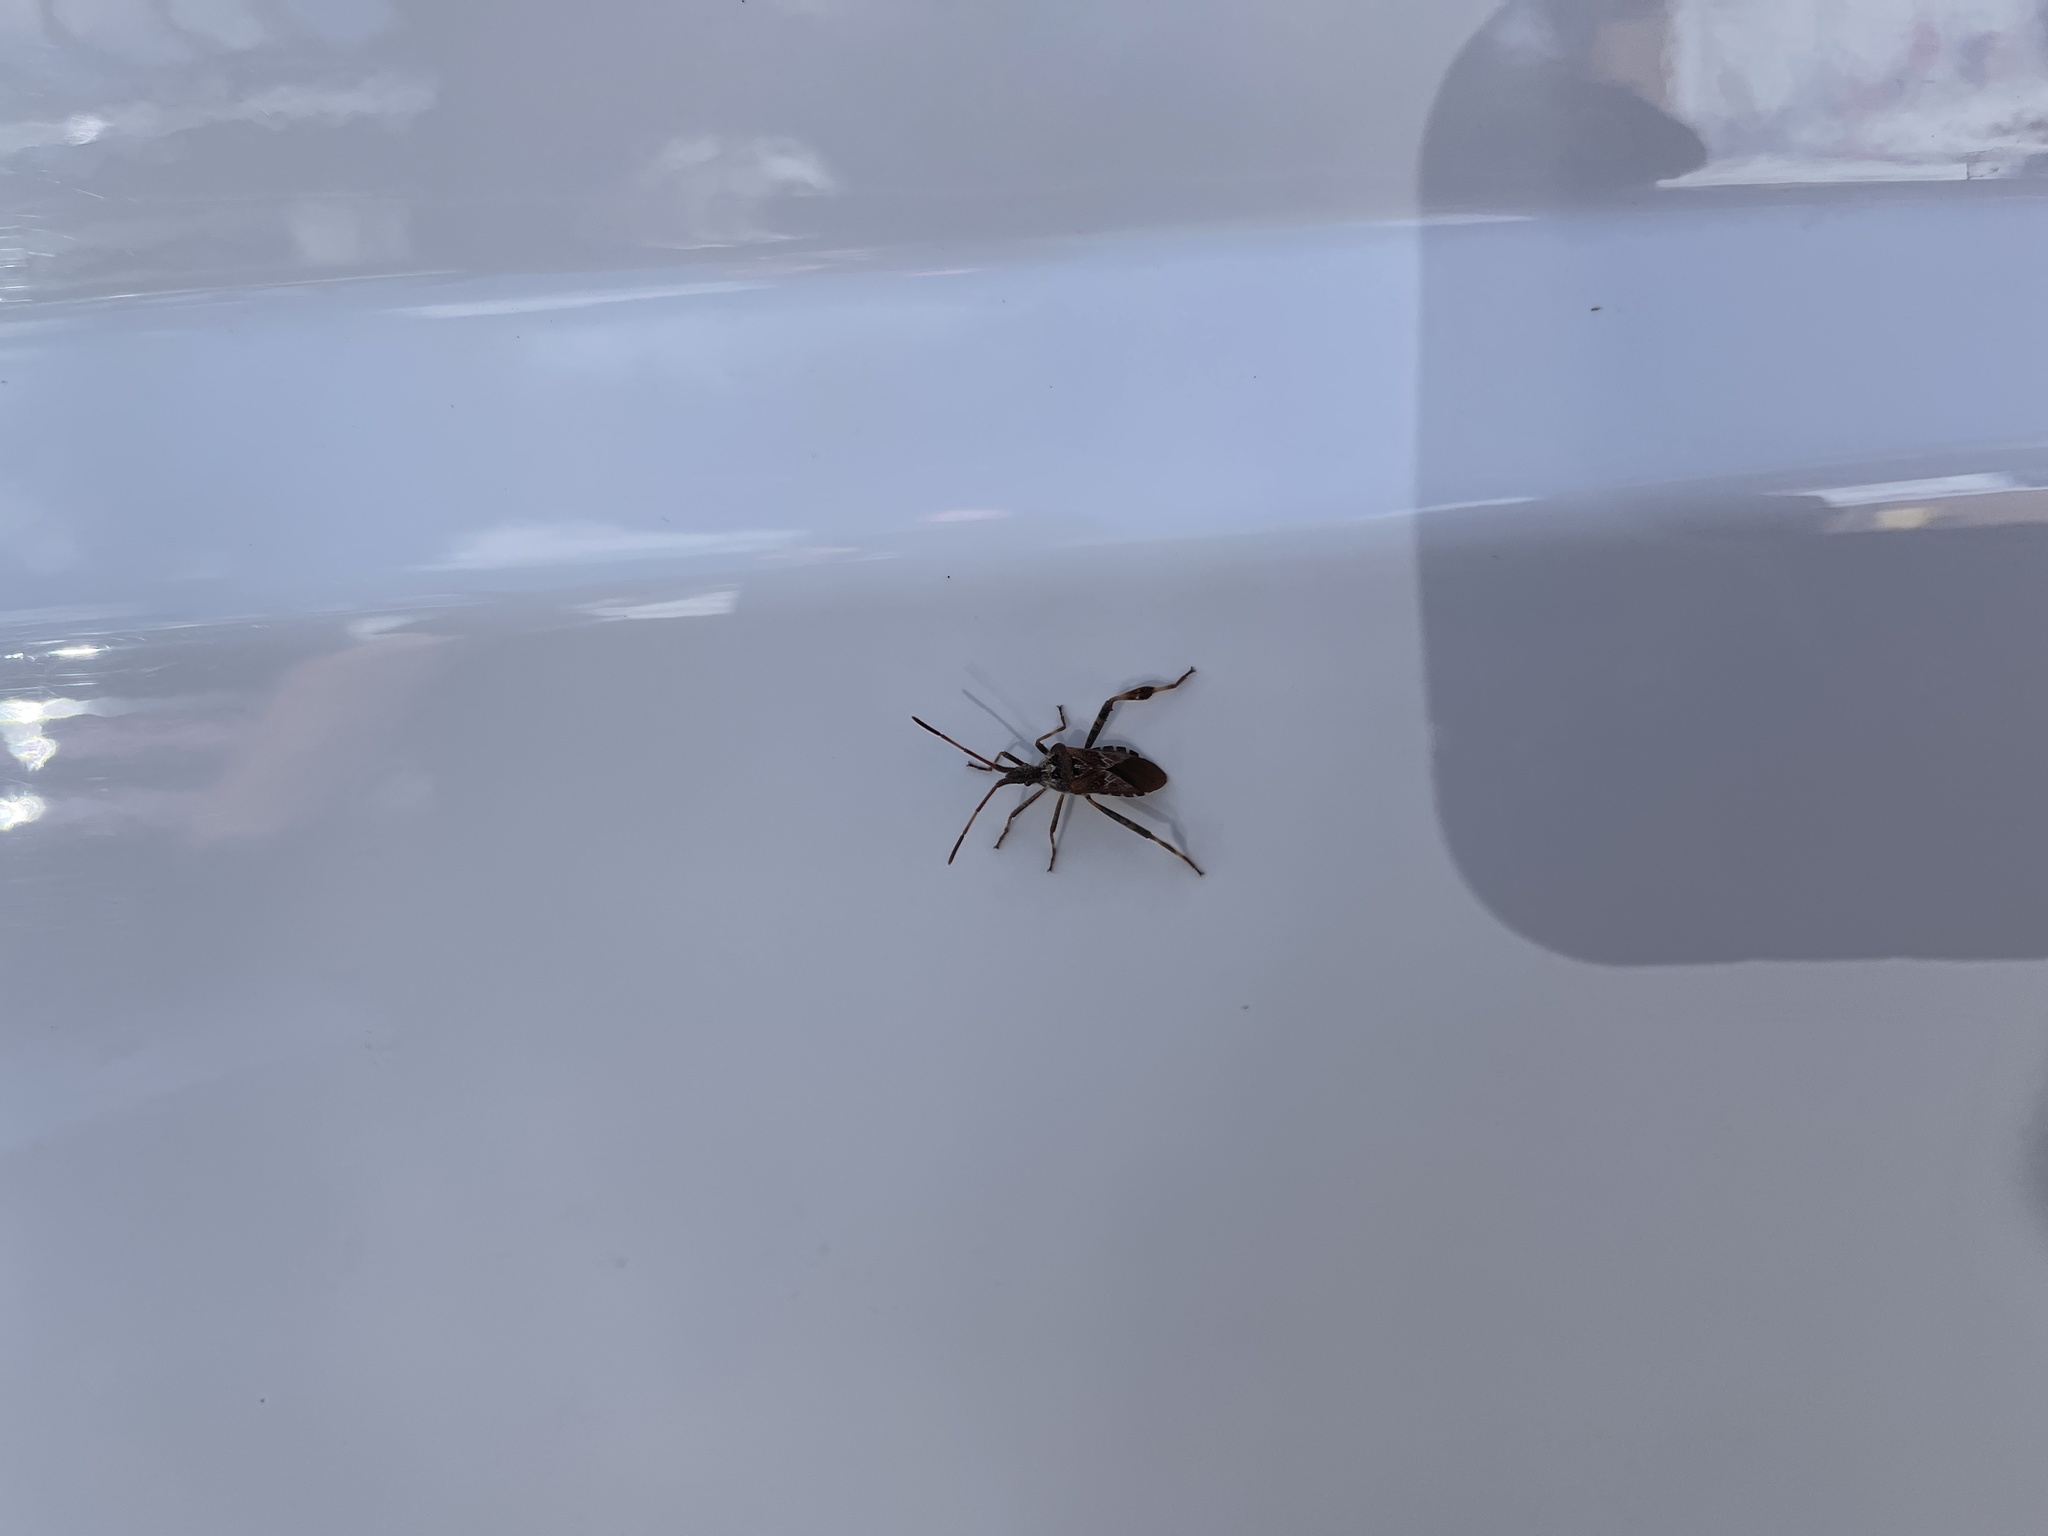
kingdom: Animalia
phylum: Arthropoda
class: Insecta
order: Hemiptera
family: Coreidae
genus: Leptoglossus
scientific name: Leptoglossus occidentalis
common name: Western conifer-seed bug
